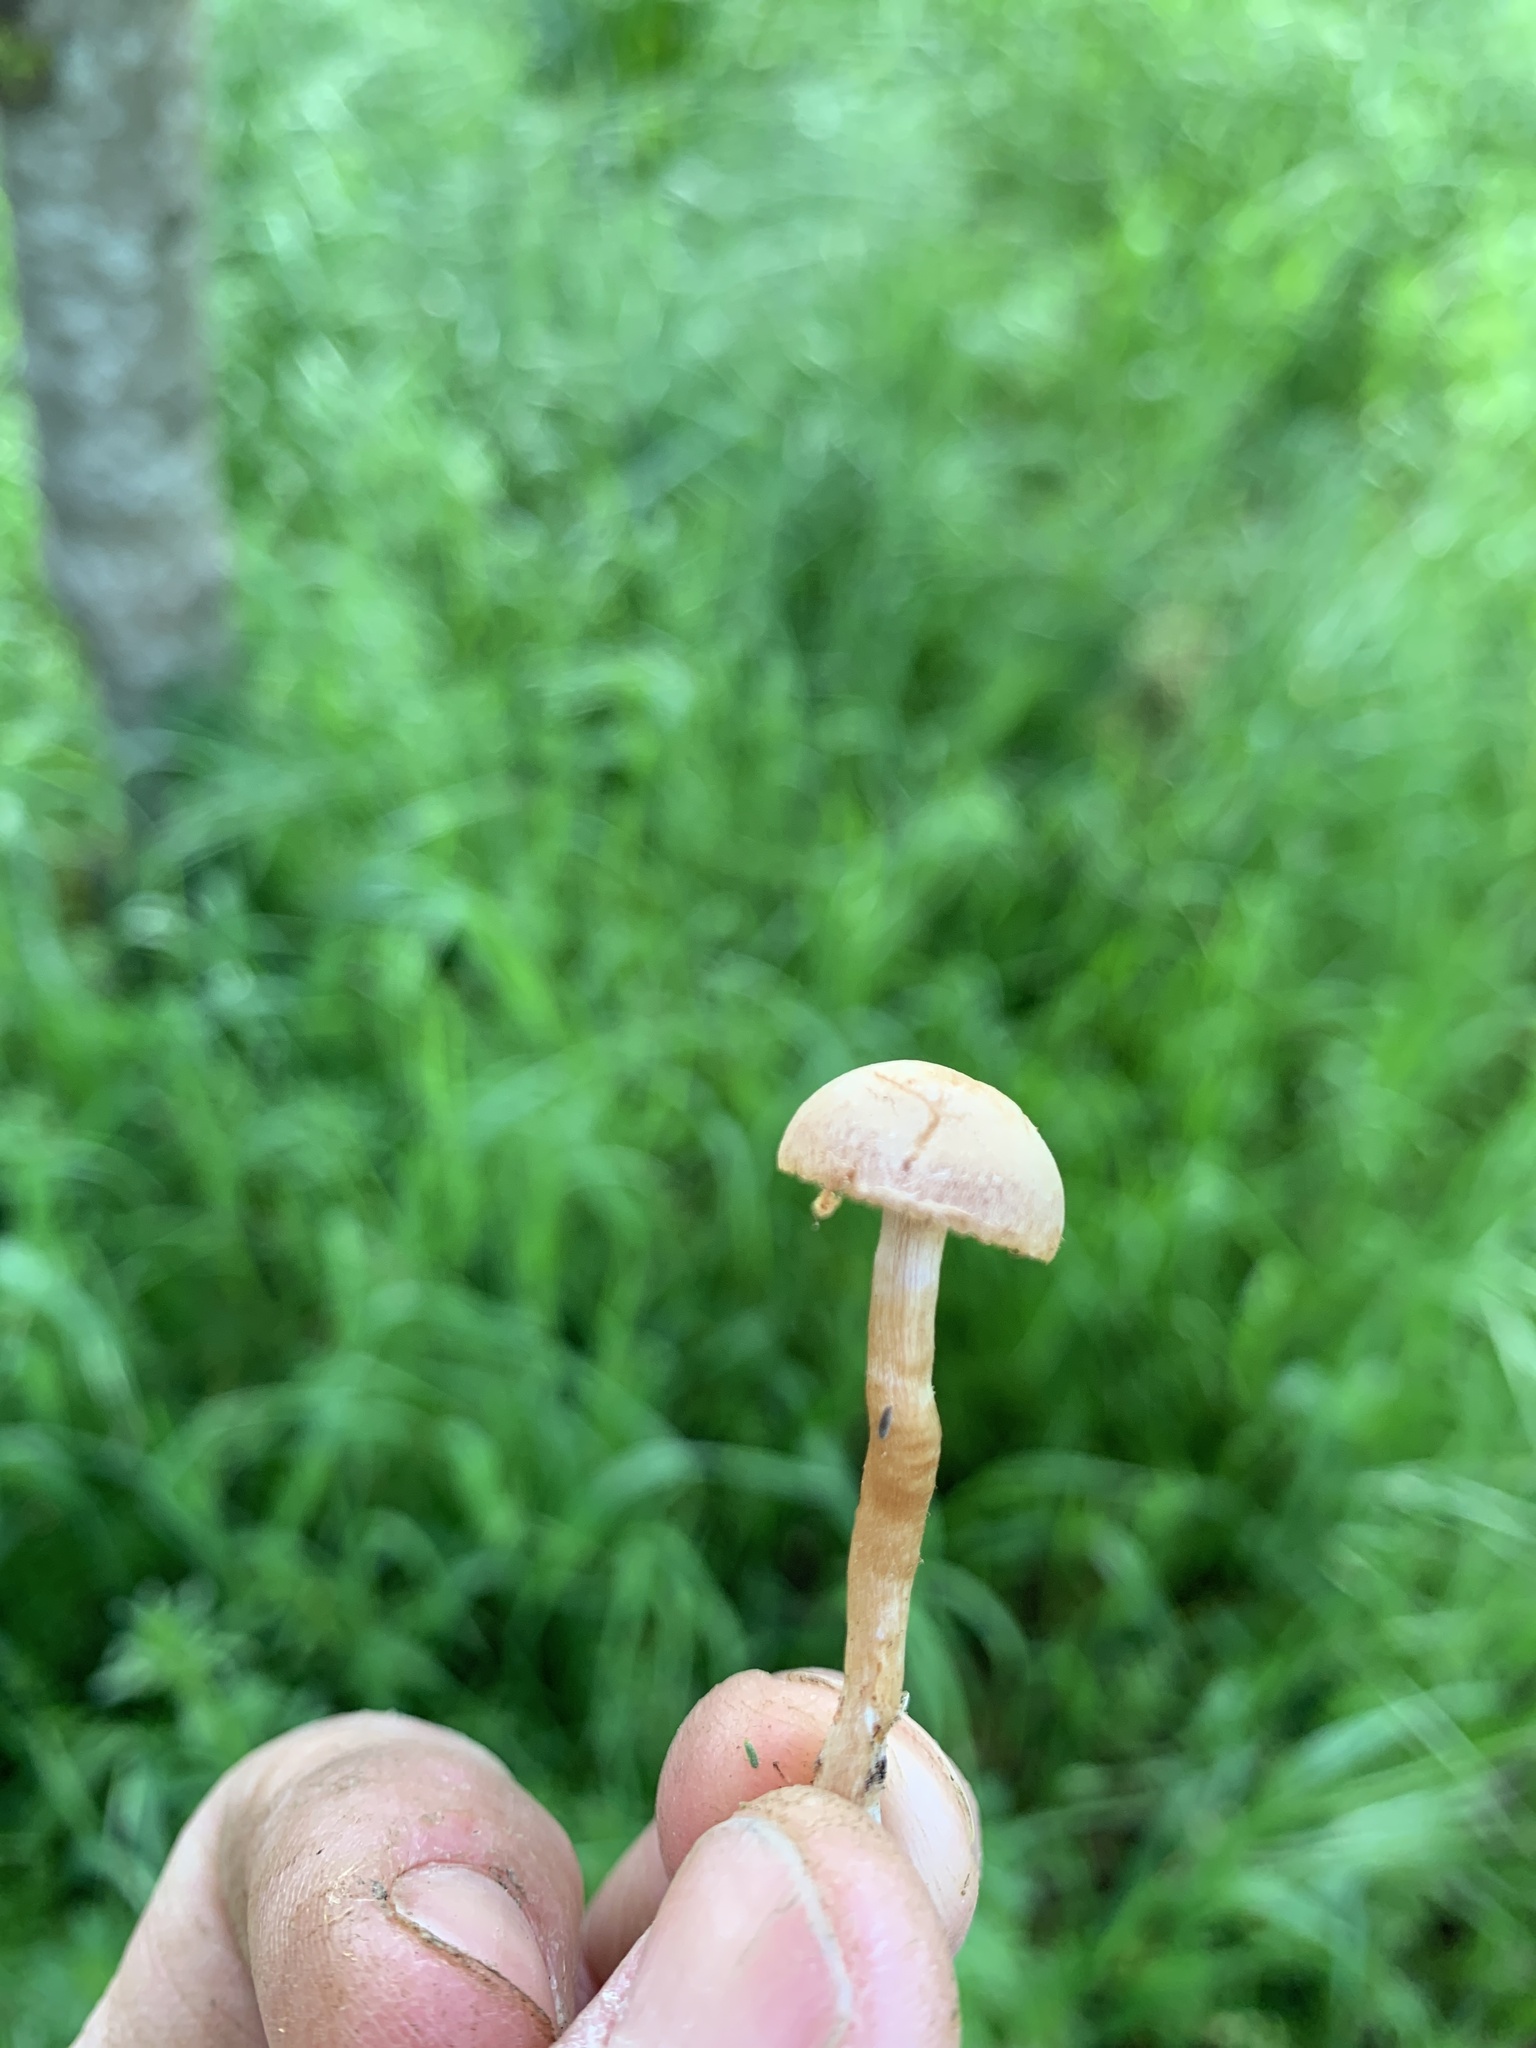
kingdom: Fungi
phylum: Basidiomycota
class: Agaricomycetes
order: Agaricales
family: Strophariaceae
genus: Agrocybe
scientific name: Agrocybe pediades
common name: Common fieldcap
